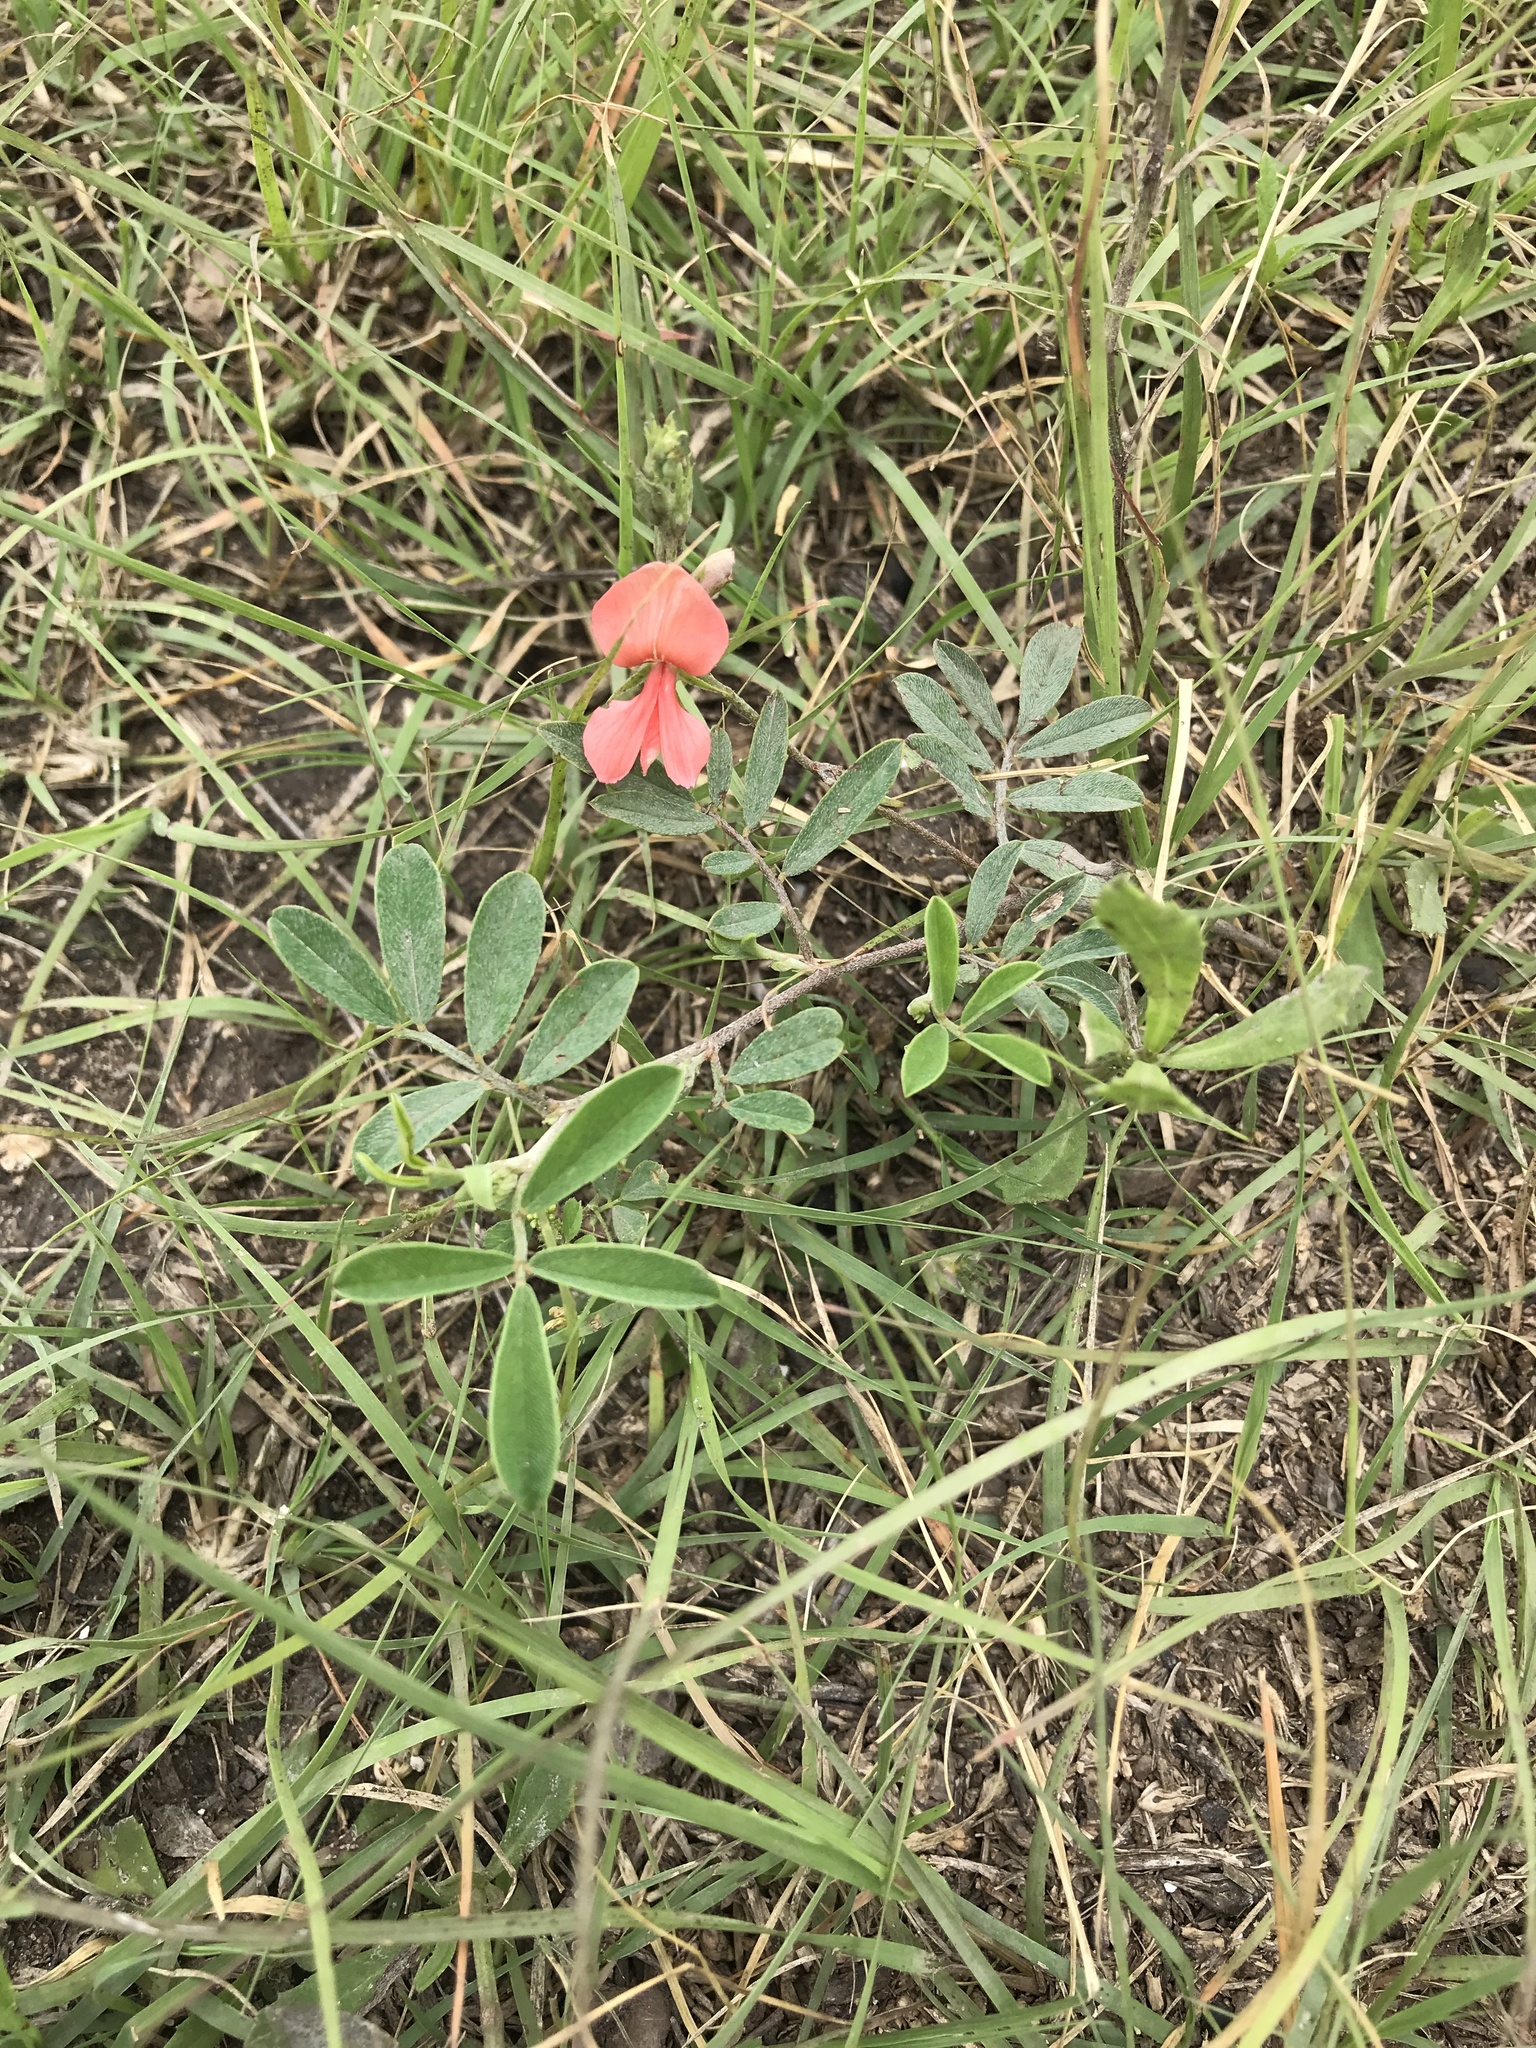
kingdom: Plantae
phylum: Tracheophyta
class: Magnoliopsida
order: Fabales
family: Fabaceae
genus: Indigofera
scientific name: Indigofera miniata
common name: Coast indigo
